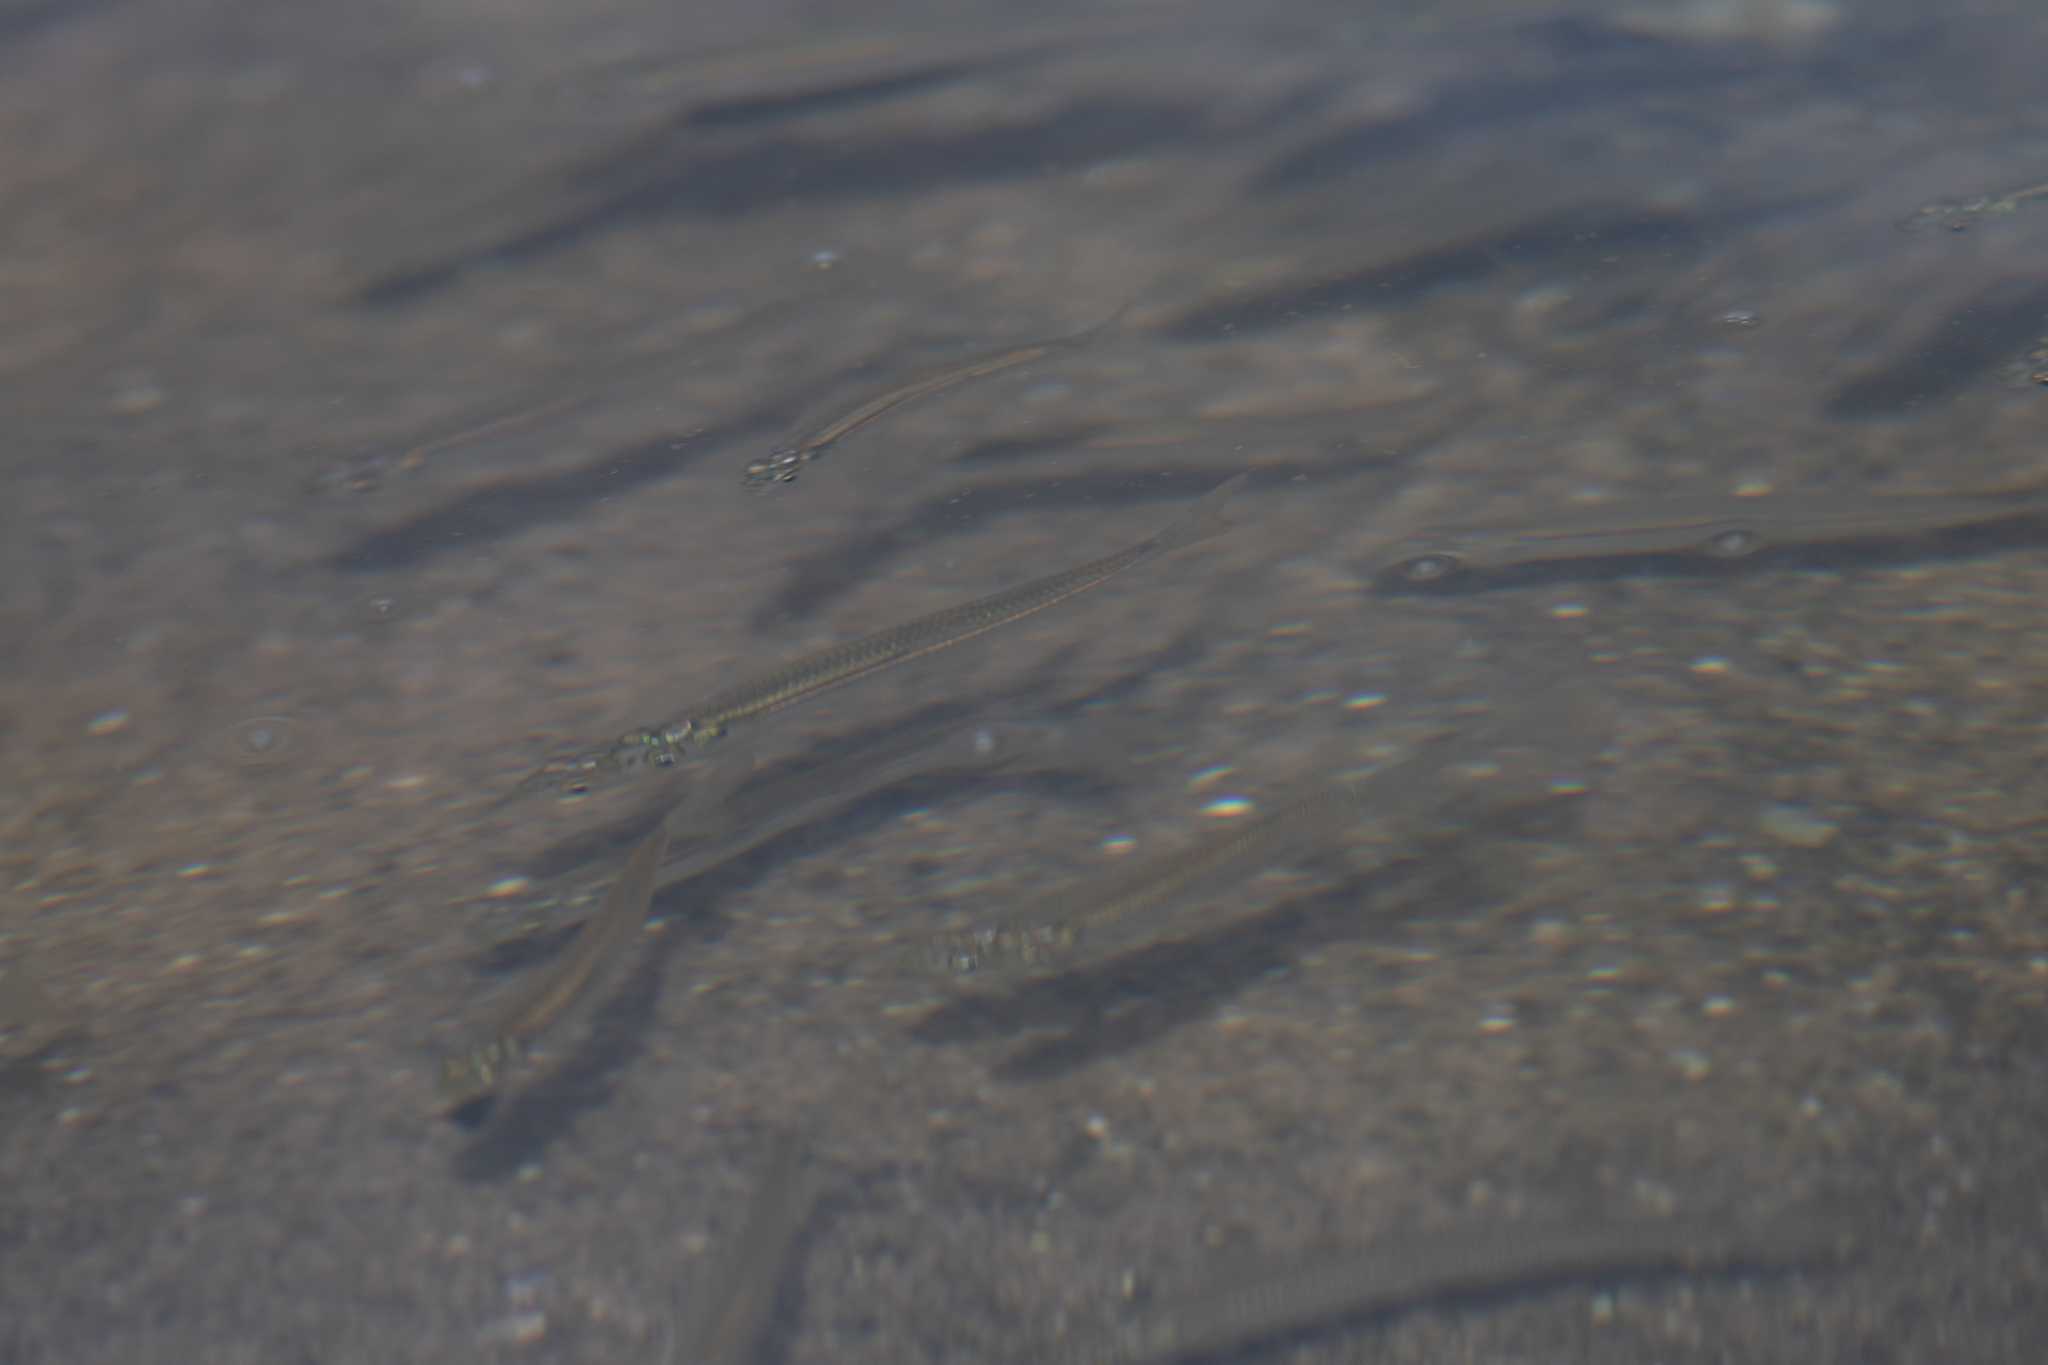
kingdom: Animalia
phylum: Chordata
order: Atheriniformes
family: Atherinopsidae
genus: Menidia
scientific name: Menidia menidia
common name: Atlantic silverside
